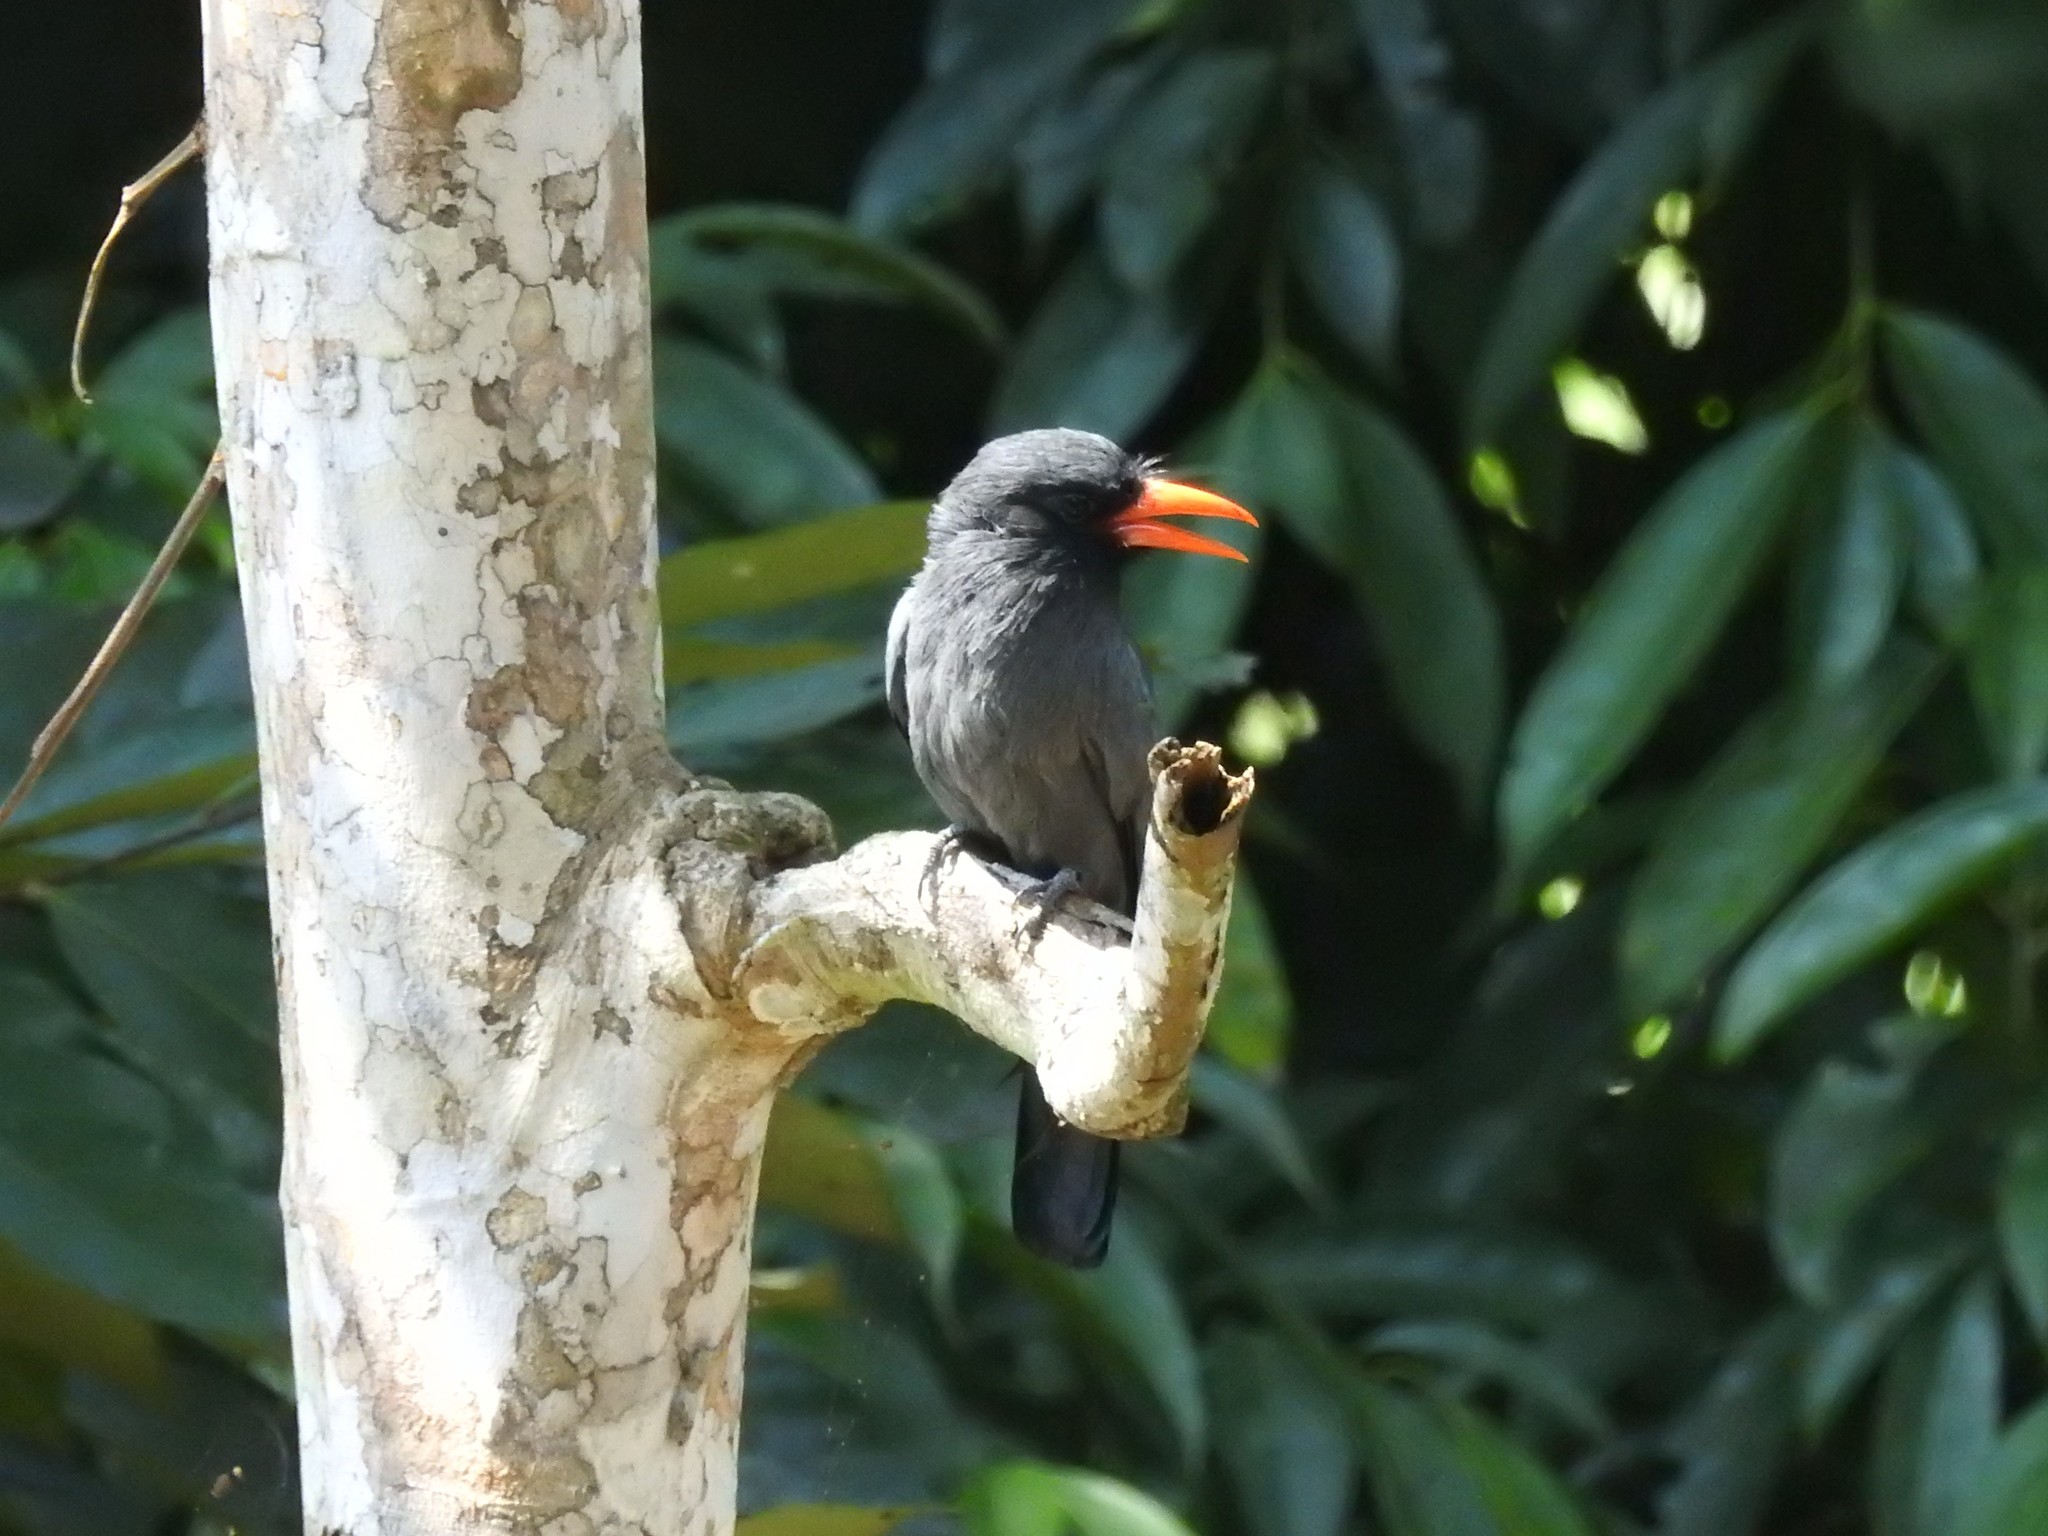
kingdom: Animalia
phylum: Chordata
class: Aves
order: Piciformes
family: Bucconidae
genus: Monasa
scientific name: Monasa nigrifrons
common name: Black-fronted nunbird
